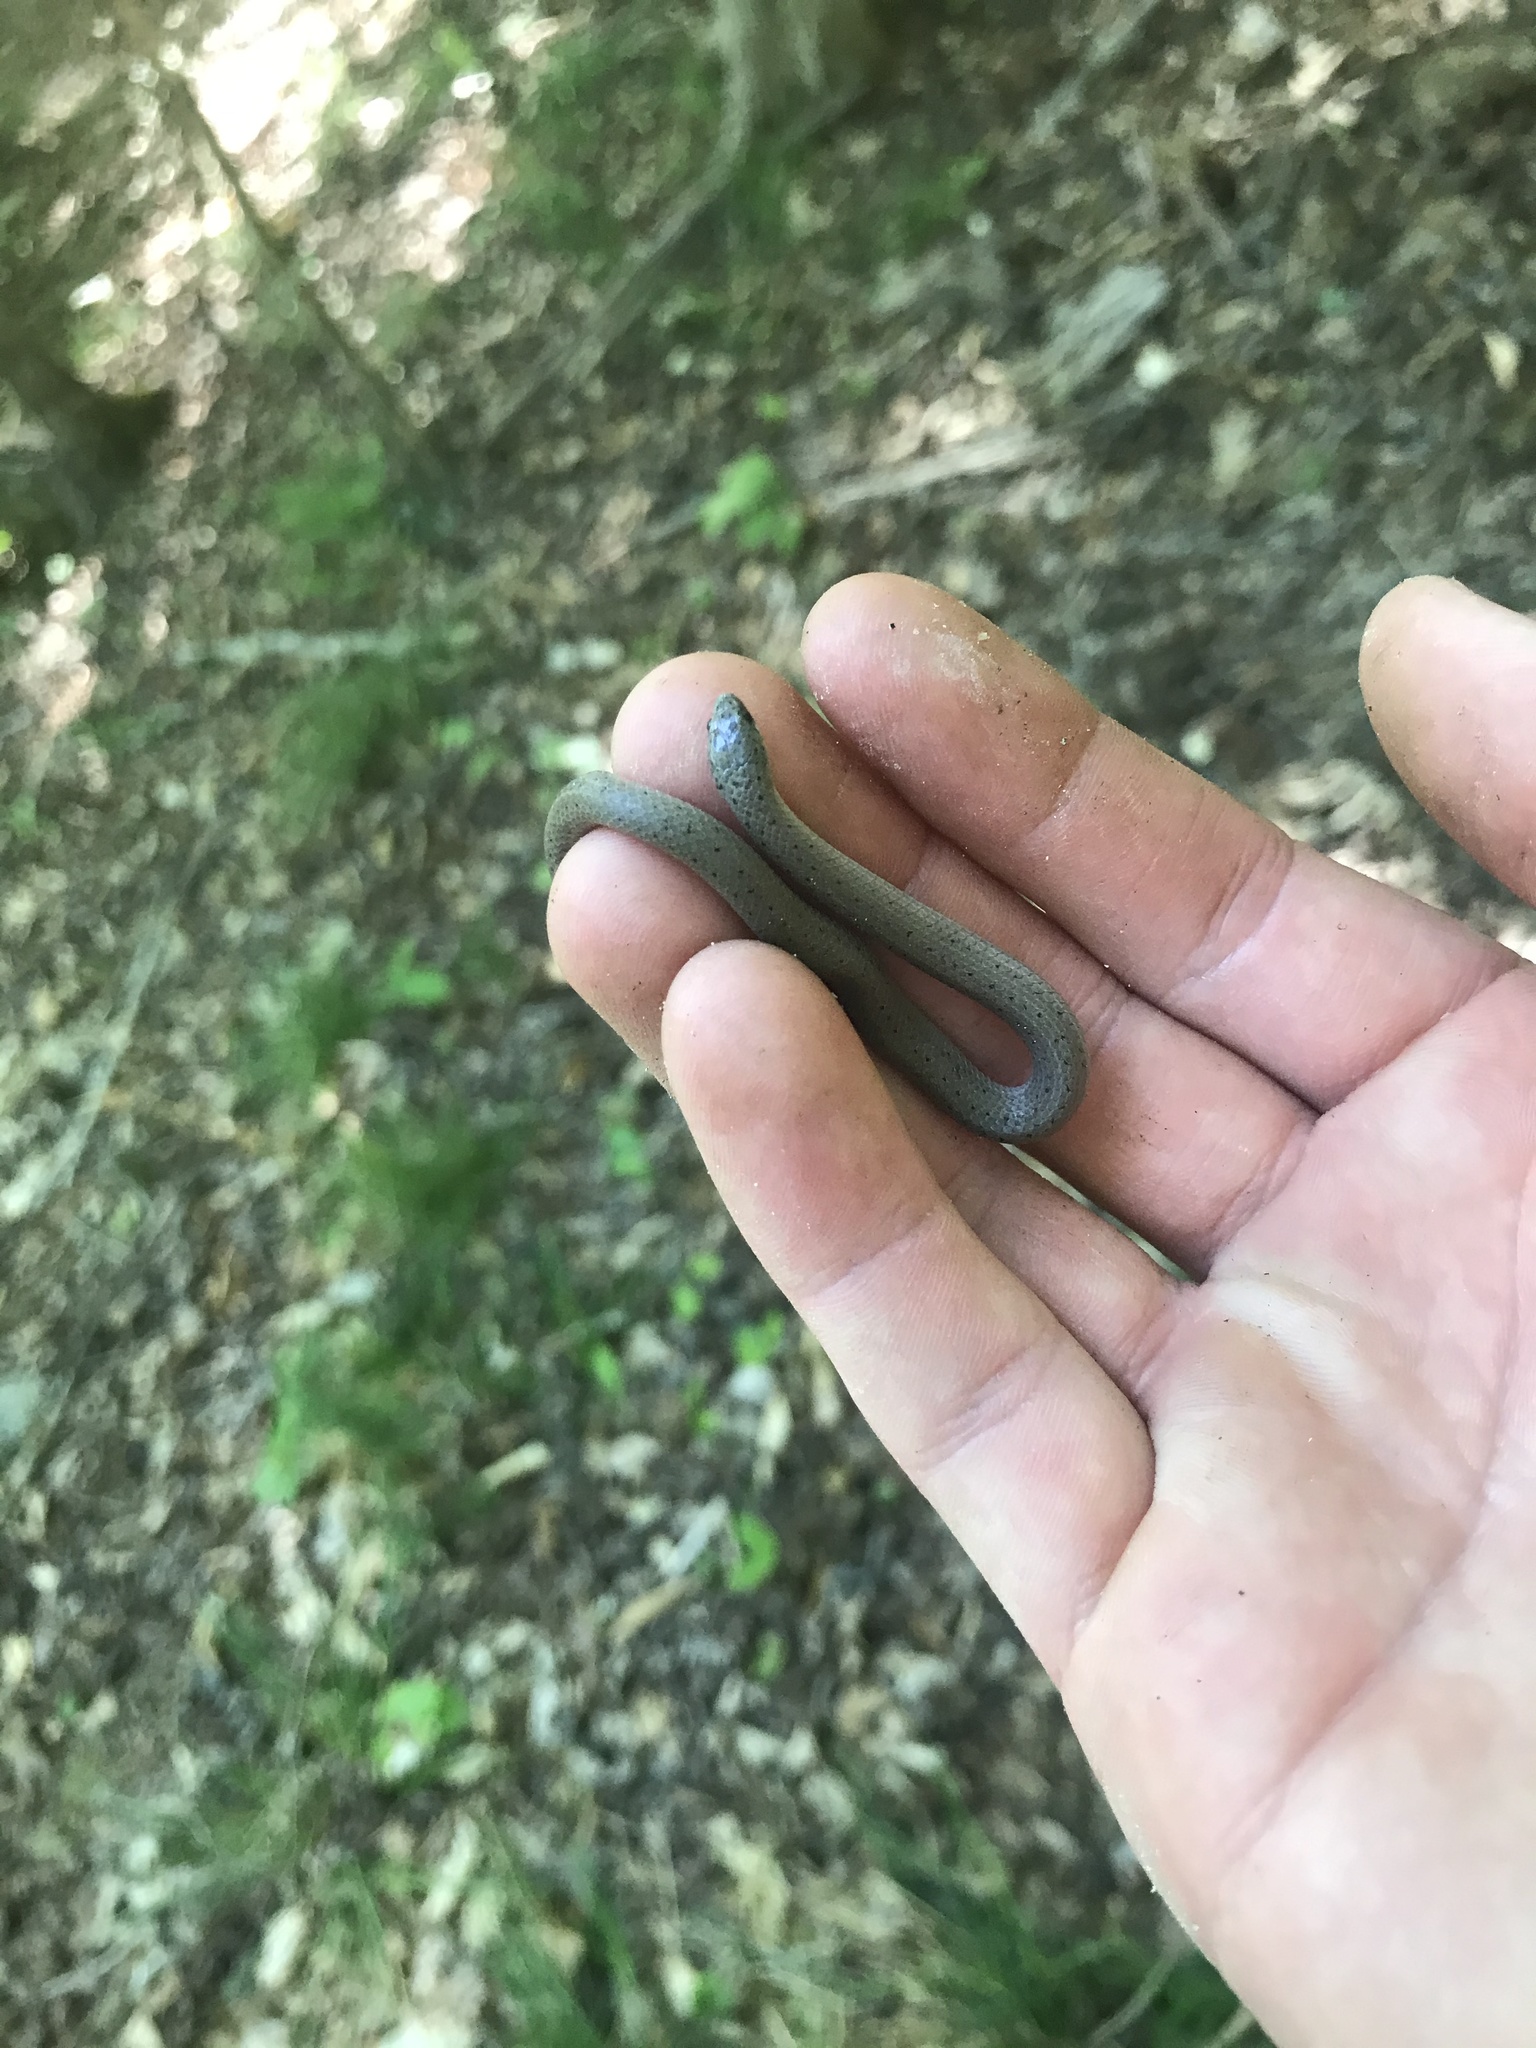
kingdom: Animalia
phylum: Chordata
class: Squamata
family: Colubridae
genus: Virginia
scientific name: Virginia valeriae
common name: Smooth earth snake
